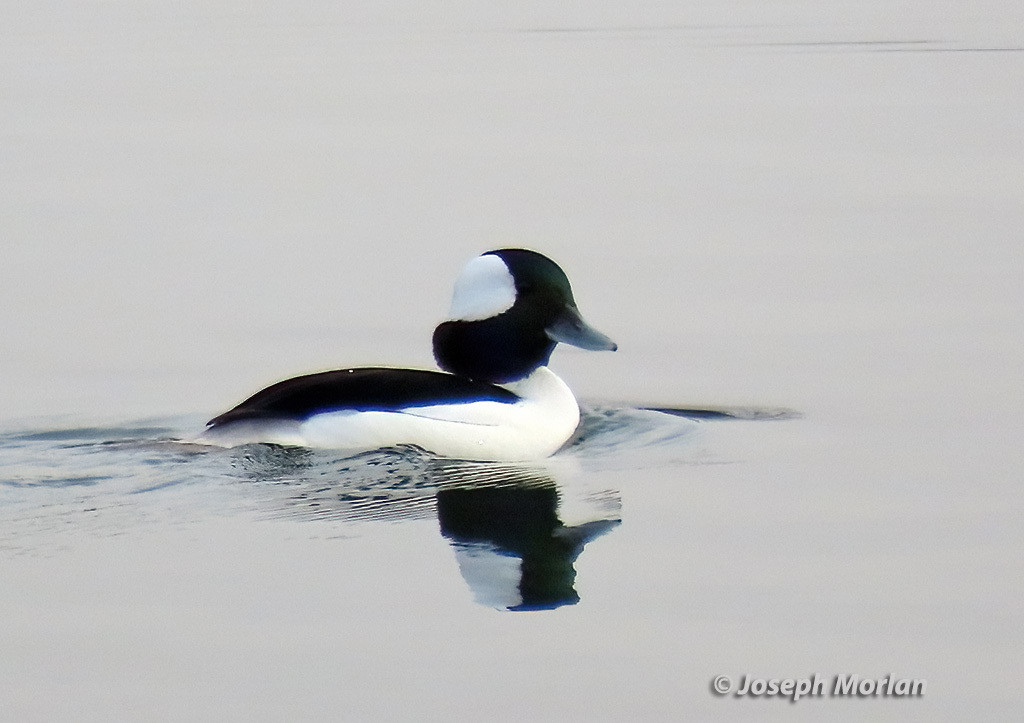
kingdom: Animalia
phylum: Chordata
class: Aves
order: Anseriformes
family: Anatidae
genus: Bucephala
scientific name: Bucephala albeola
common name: Bufflehead
